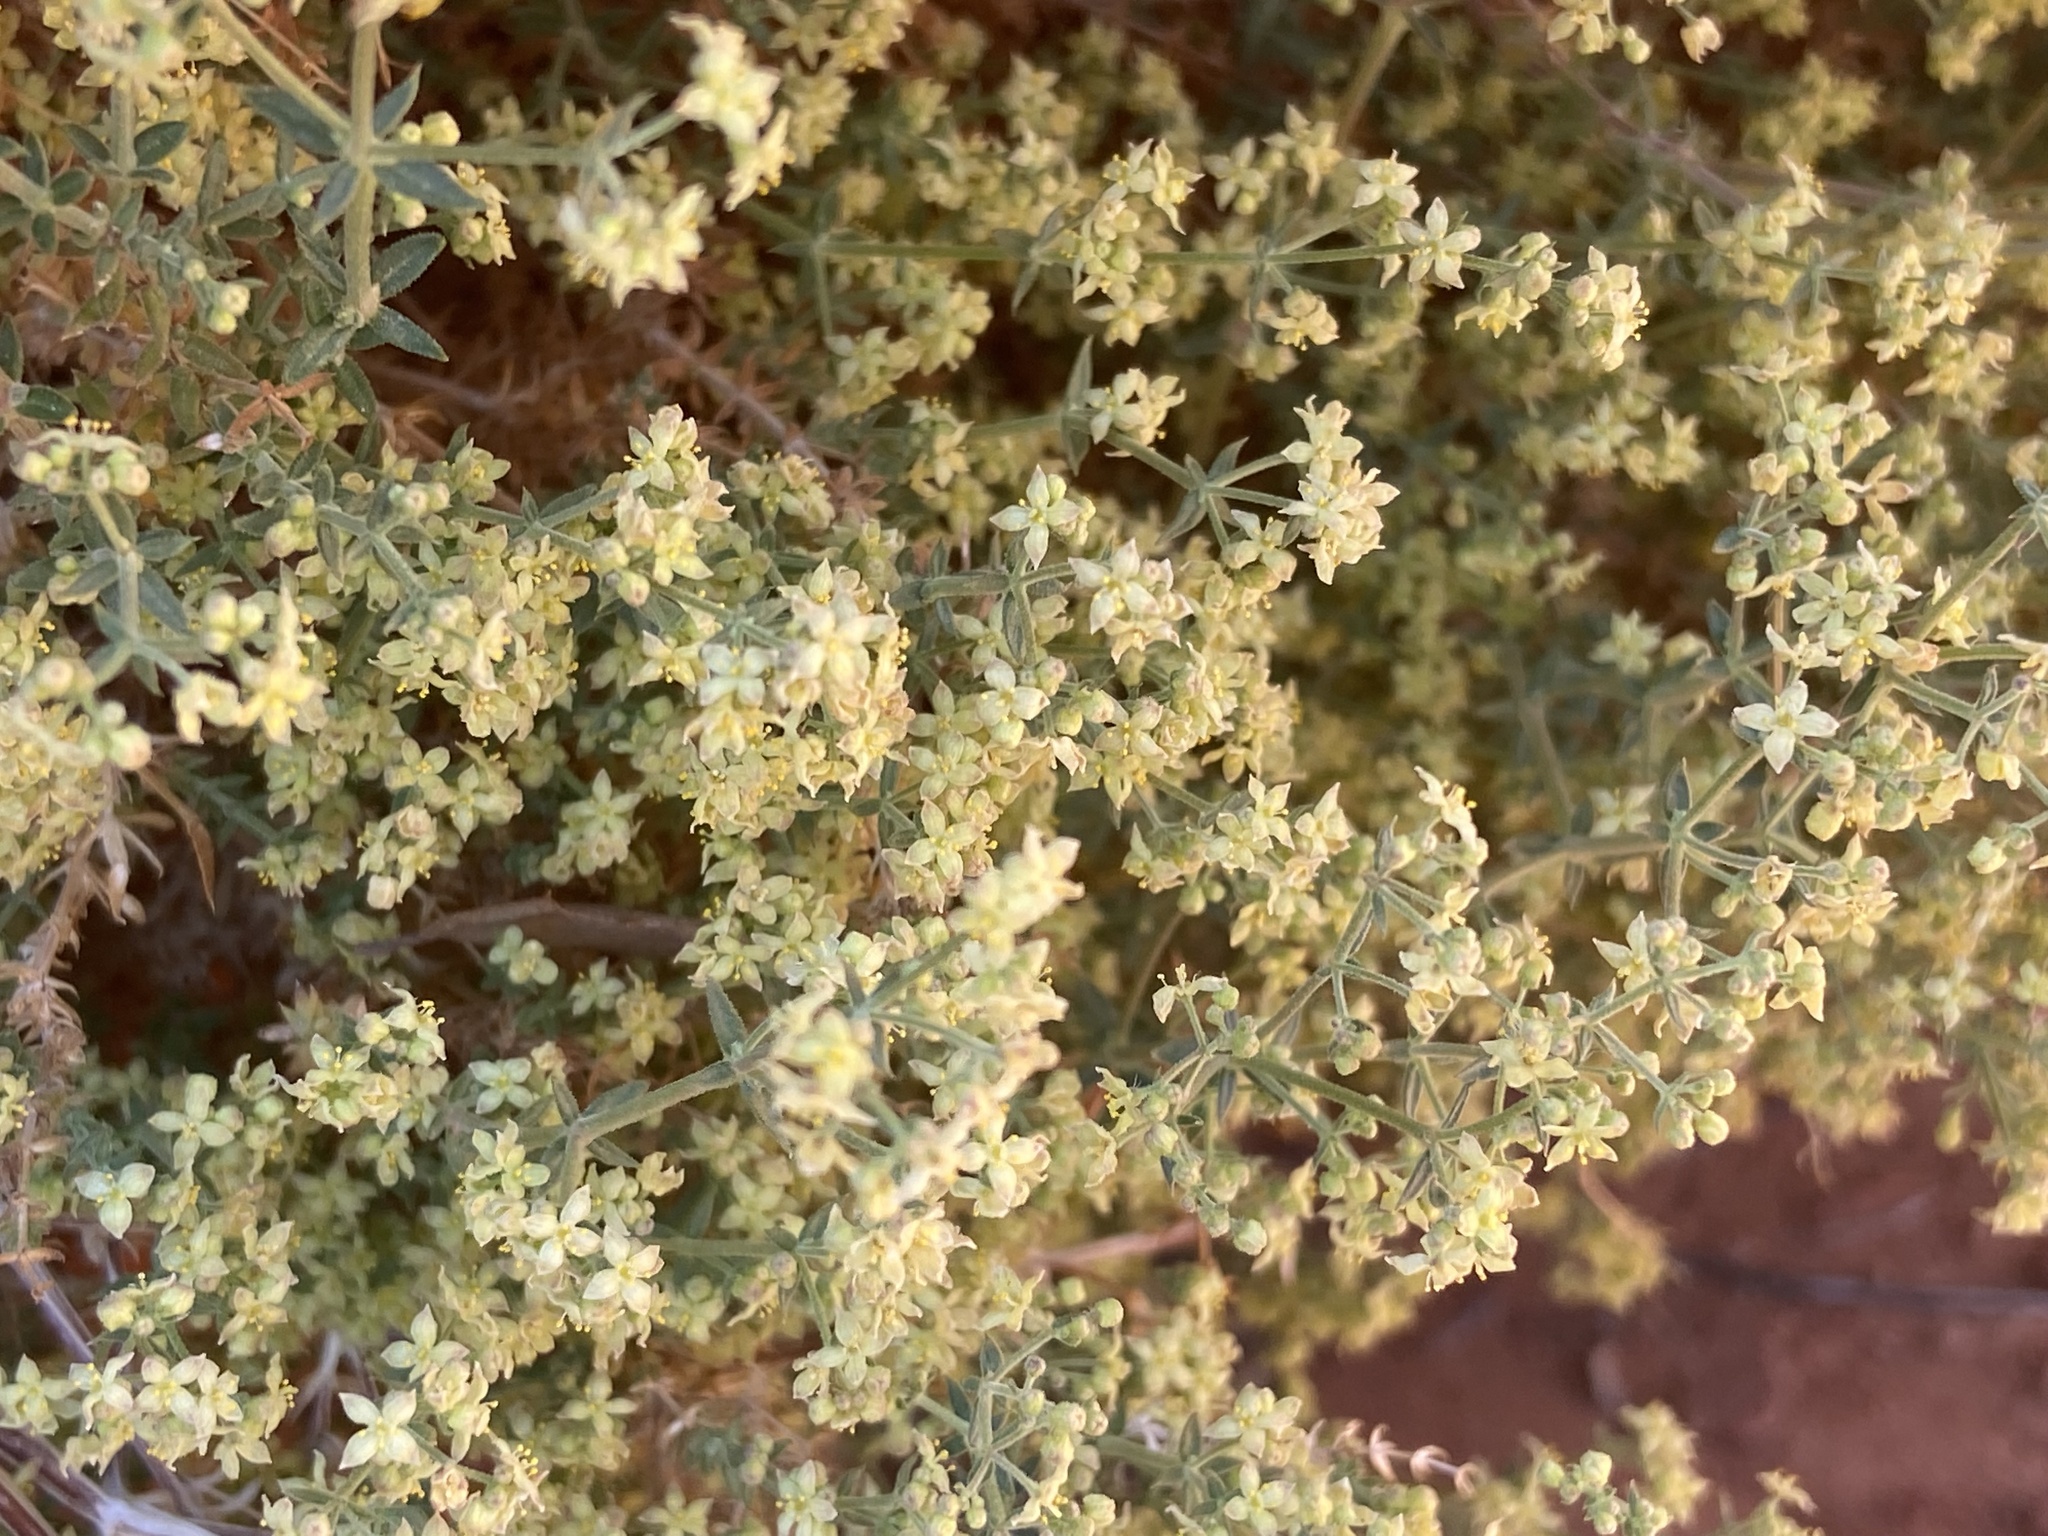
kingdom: Plantae
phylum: Tracheophyta
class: Magnoliopsida
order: Gentianales
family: Rubiaceae
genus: Galium
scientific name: Galium stellatum
